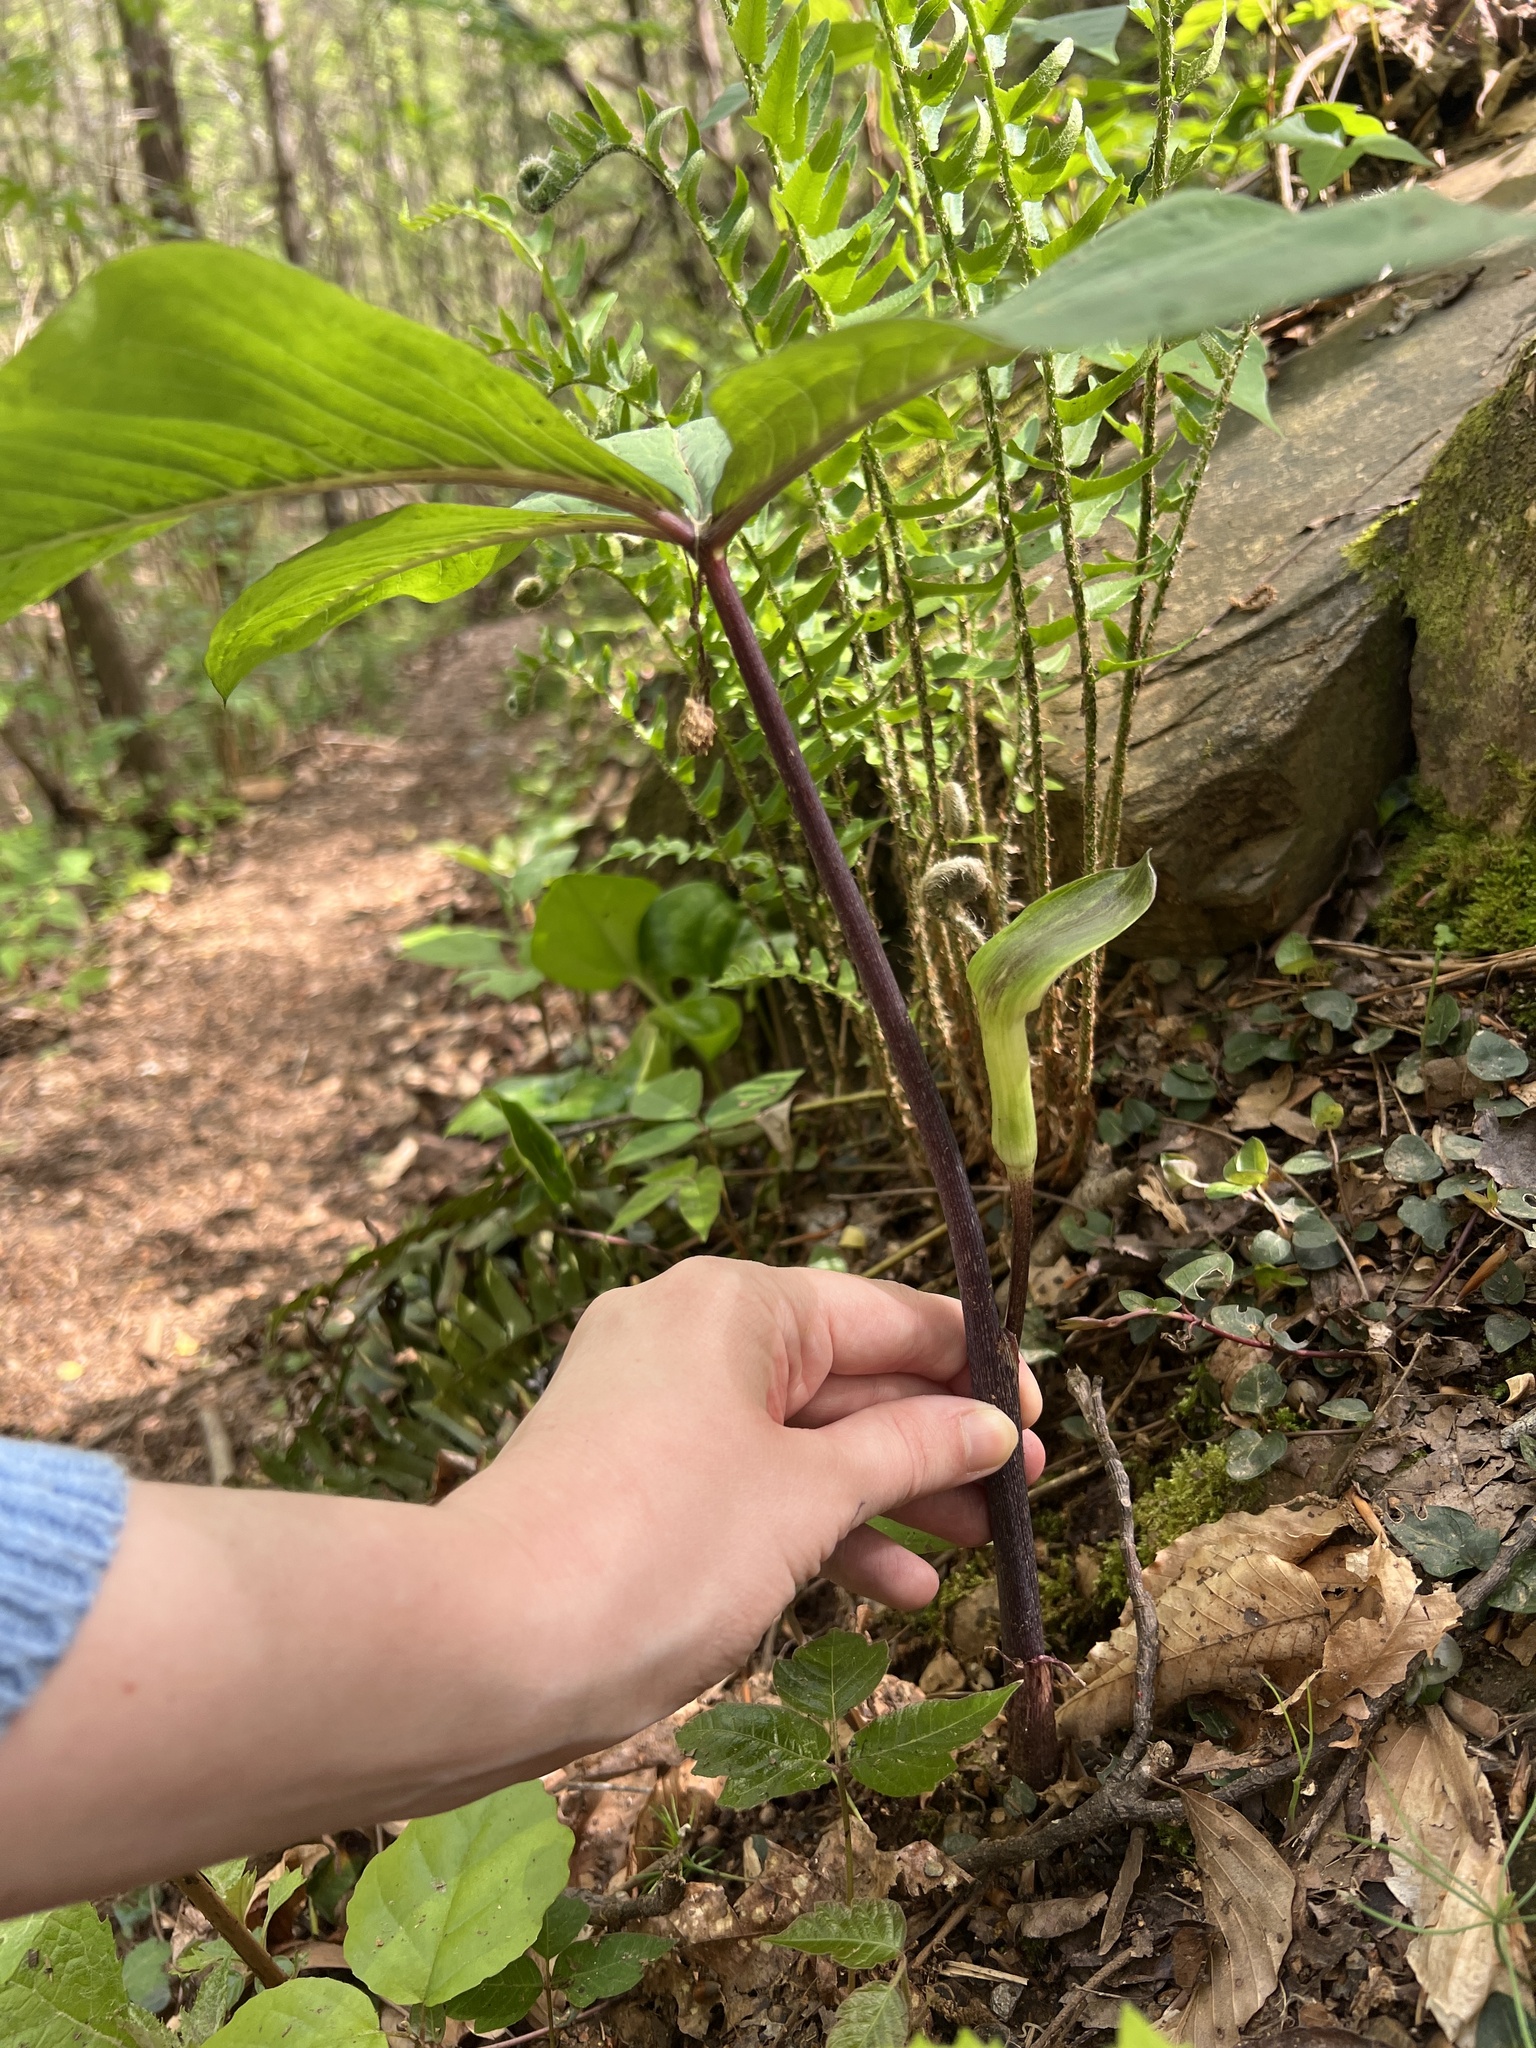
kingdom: Plantae
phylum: Tracheophyta
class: Liliopsida
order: Alismatales
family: Araceae
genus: Arisaema
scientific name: Arisaema quinatum
